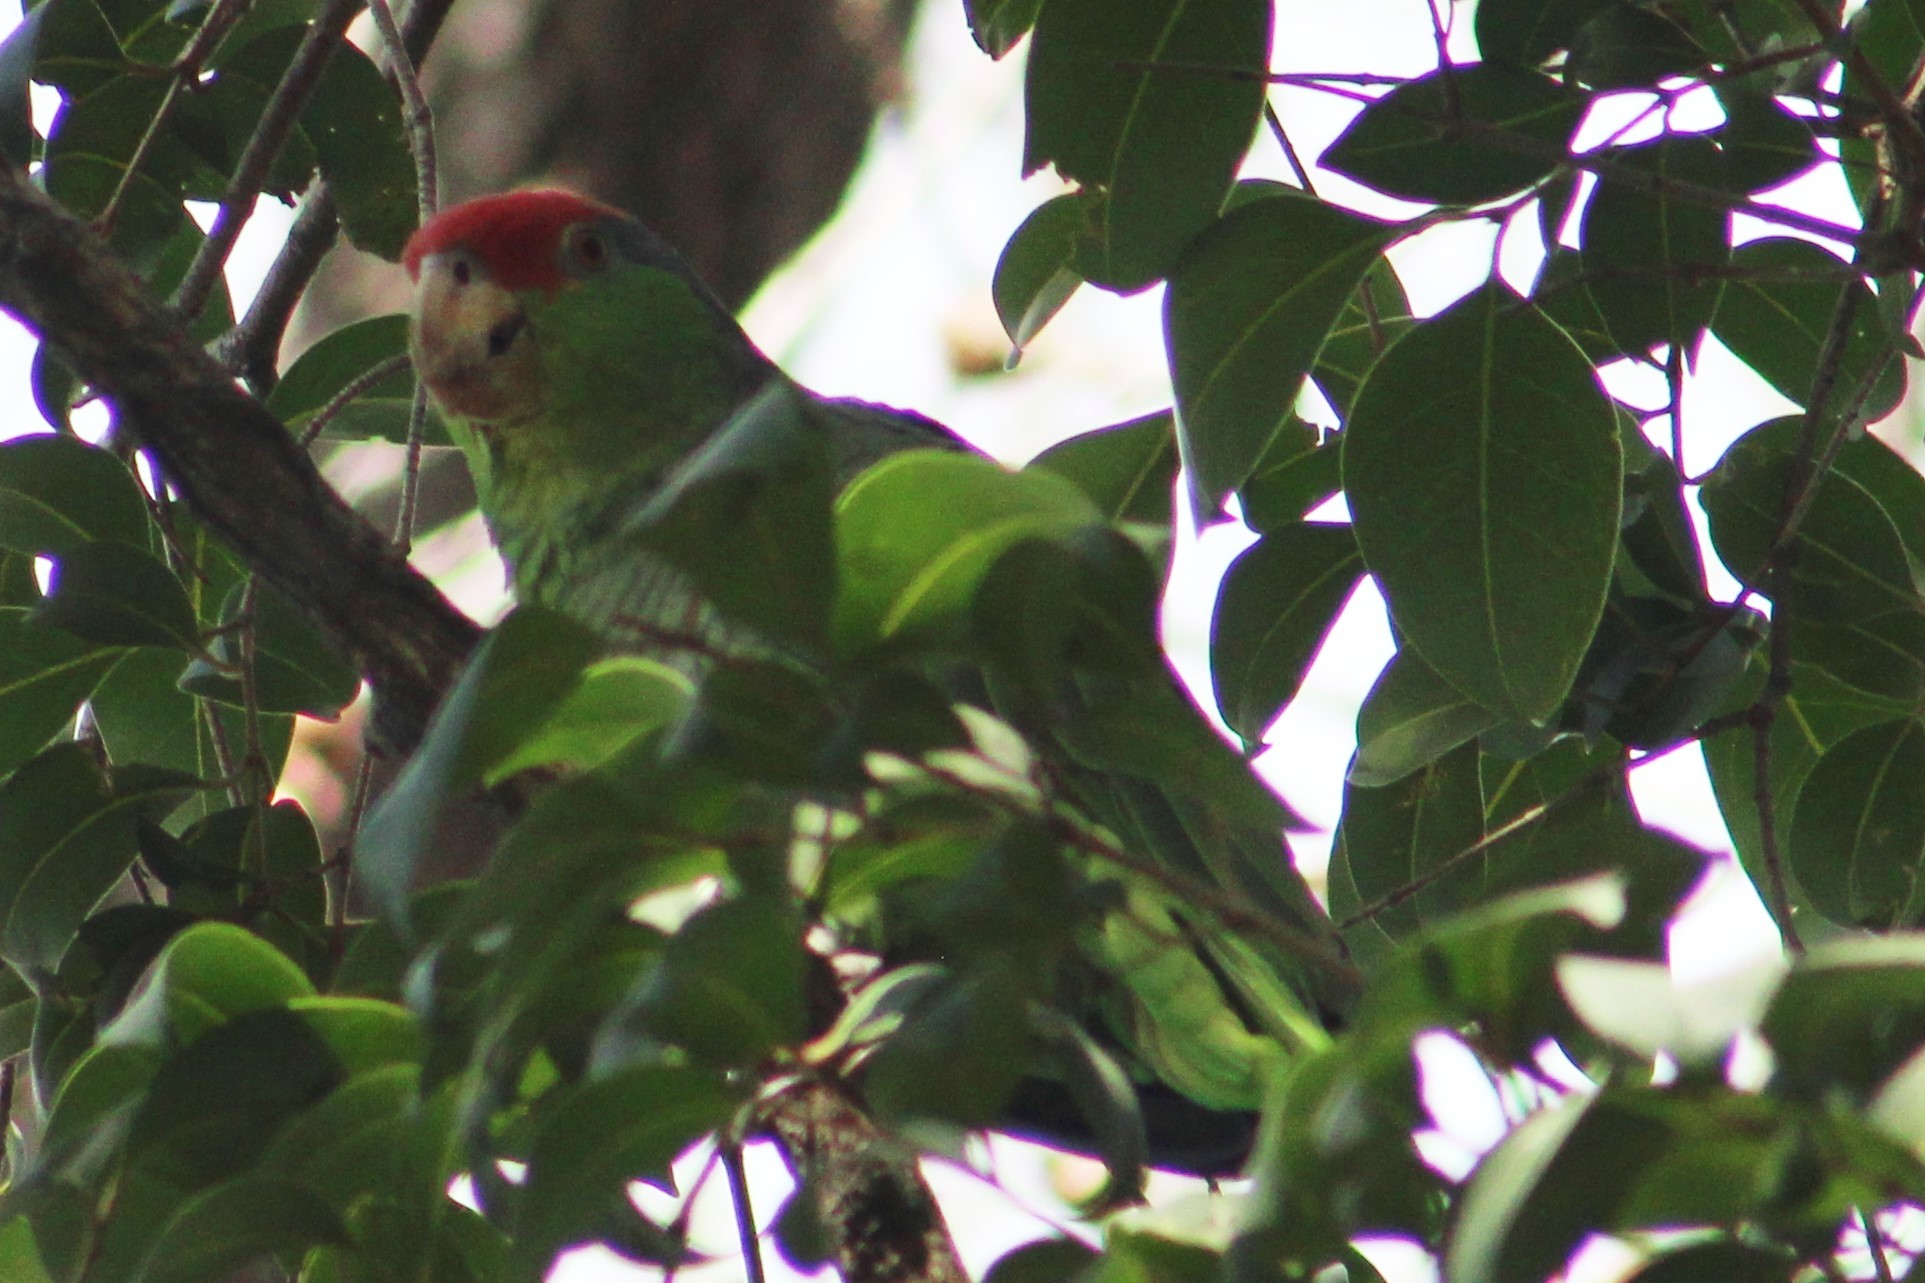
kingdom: Animalia
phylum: Chordata
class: Aves
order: Psittaciformes
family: Psittacidae
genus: Amazona
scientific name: Amazona viridigenalis
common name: Red-crowned amazon
